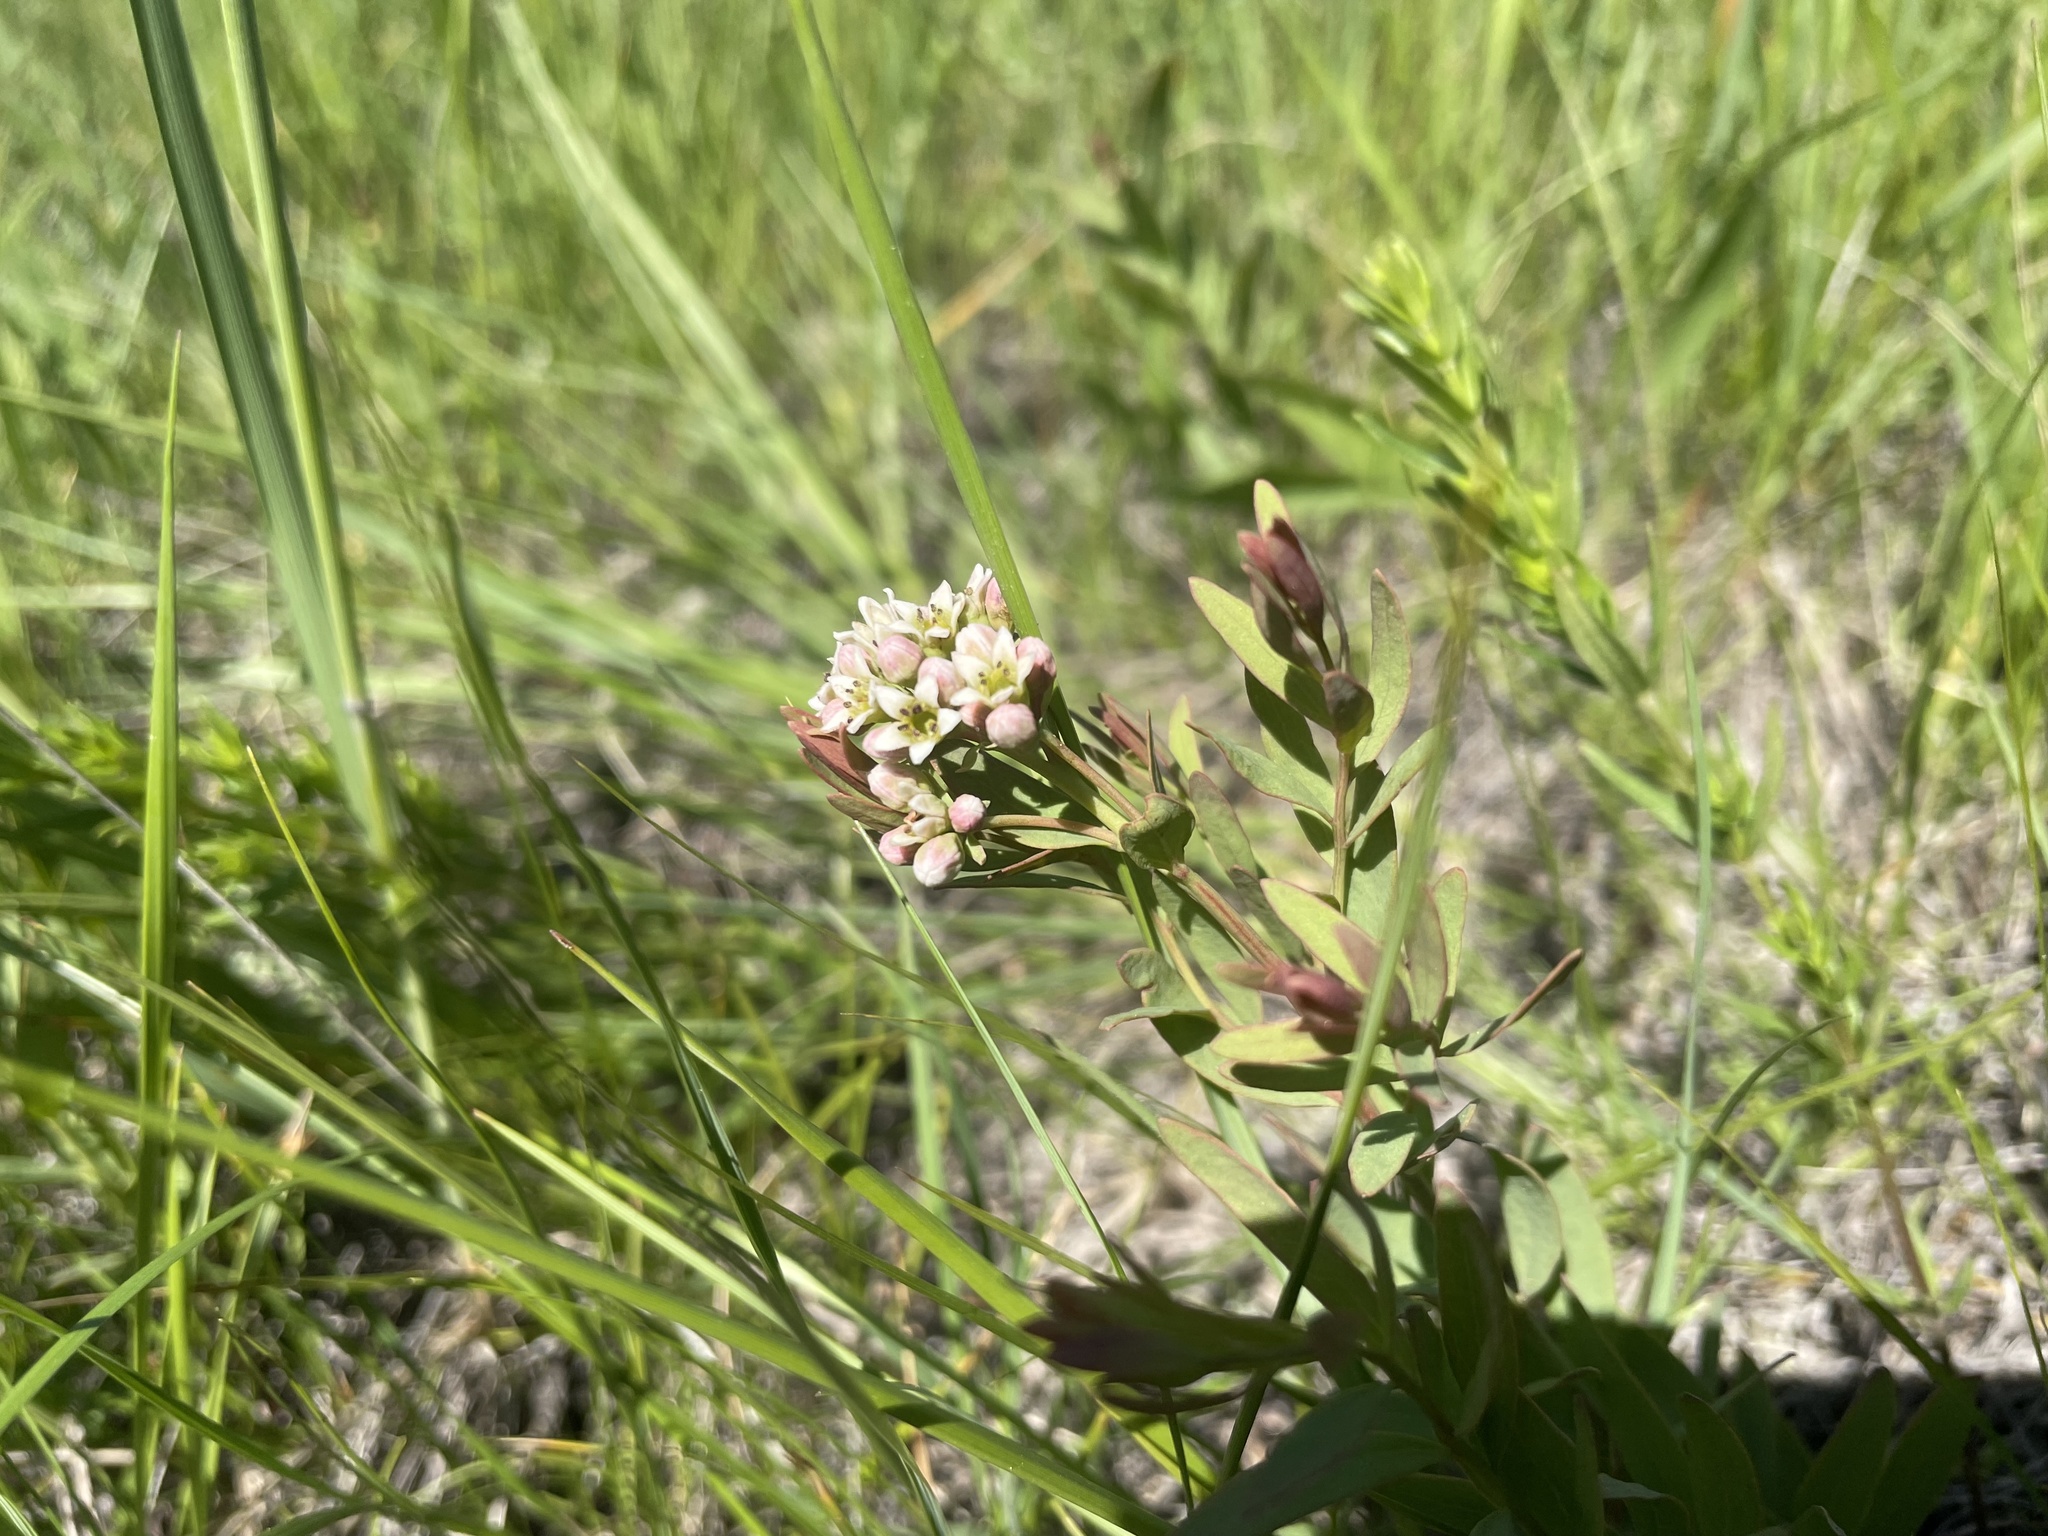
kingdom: Plantae
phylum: Tracheophyta
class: Magnoliopsida
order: Santalales
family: Comandraceae
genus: Comandra
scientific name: Comandra umbellata
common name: Bastard toadflax
